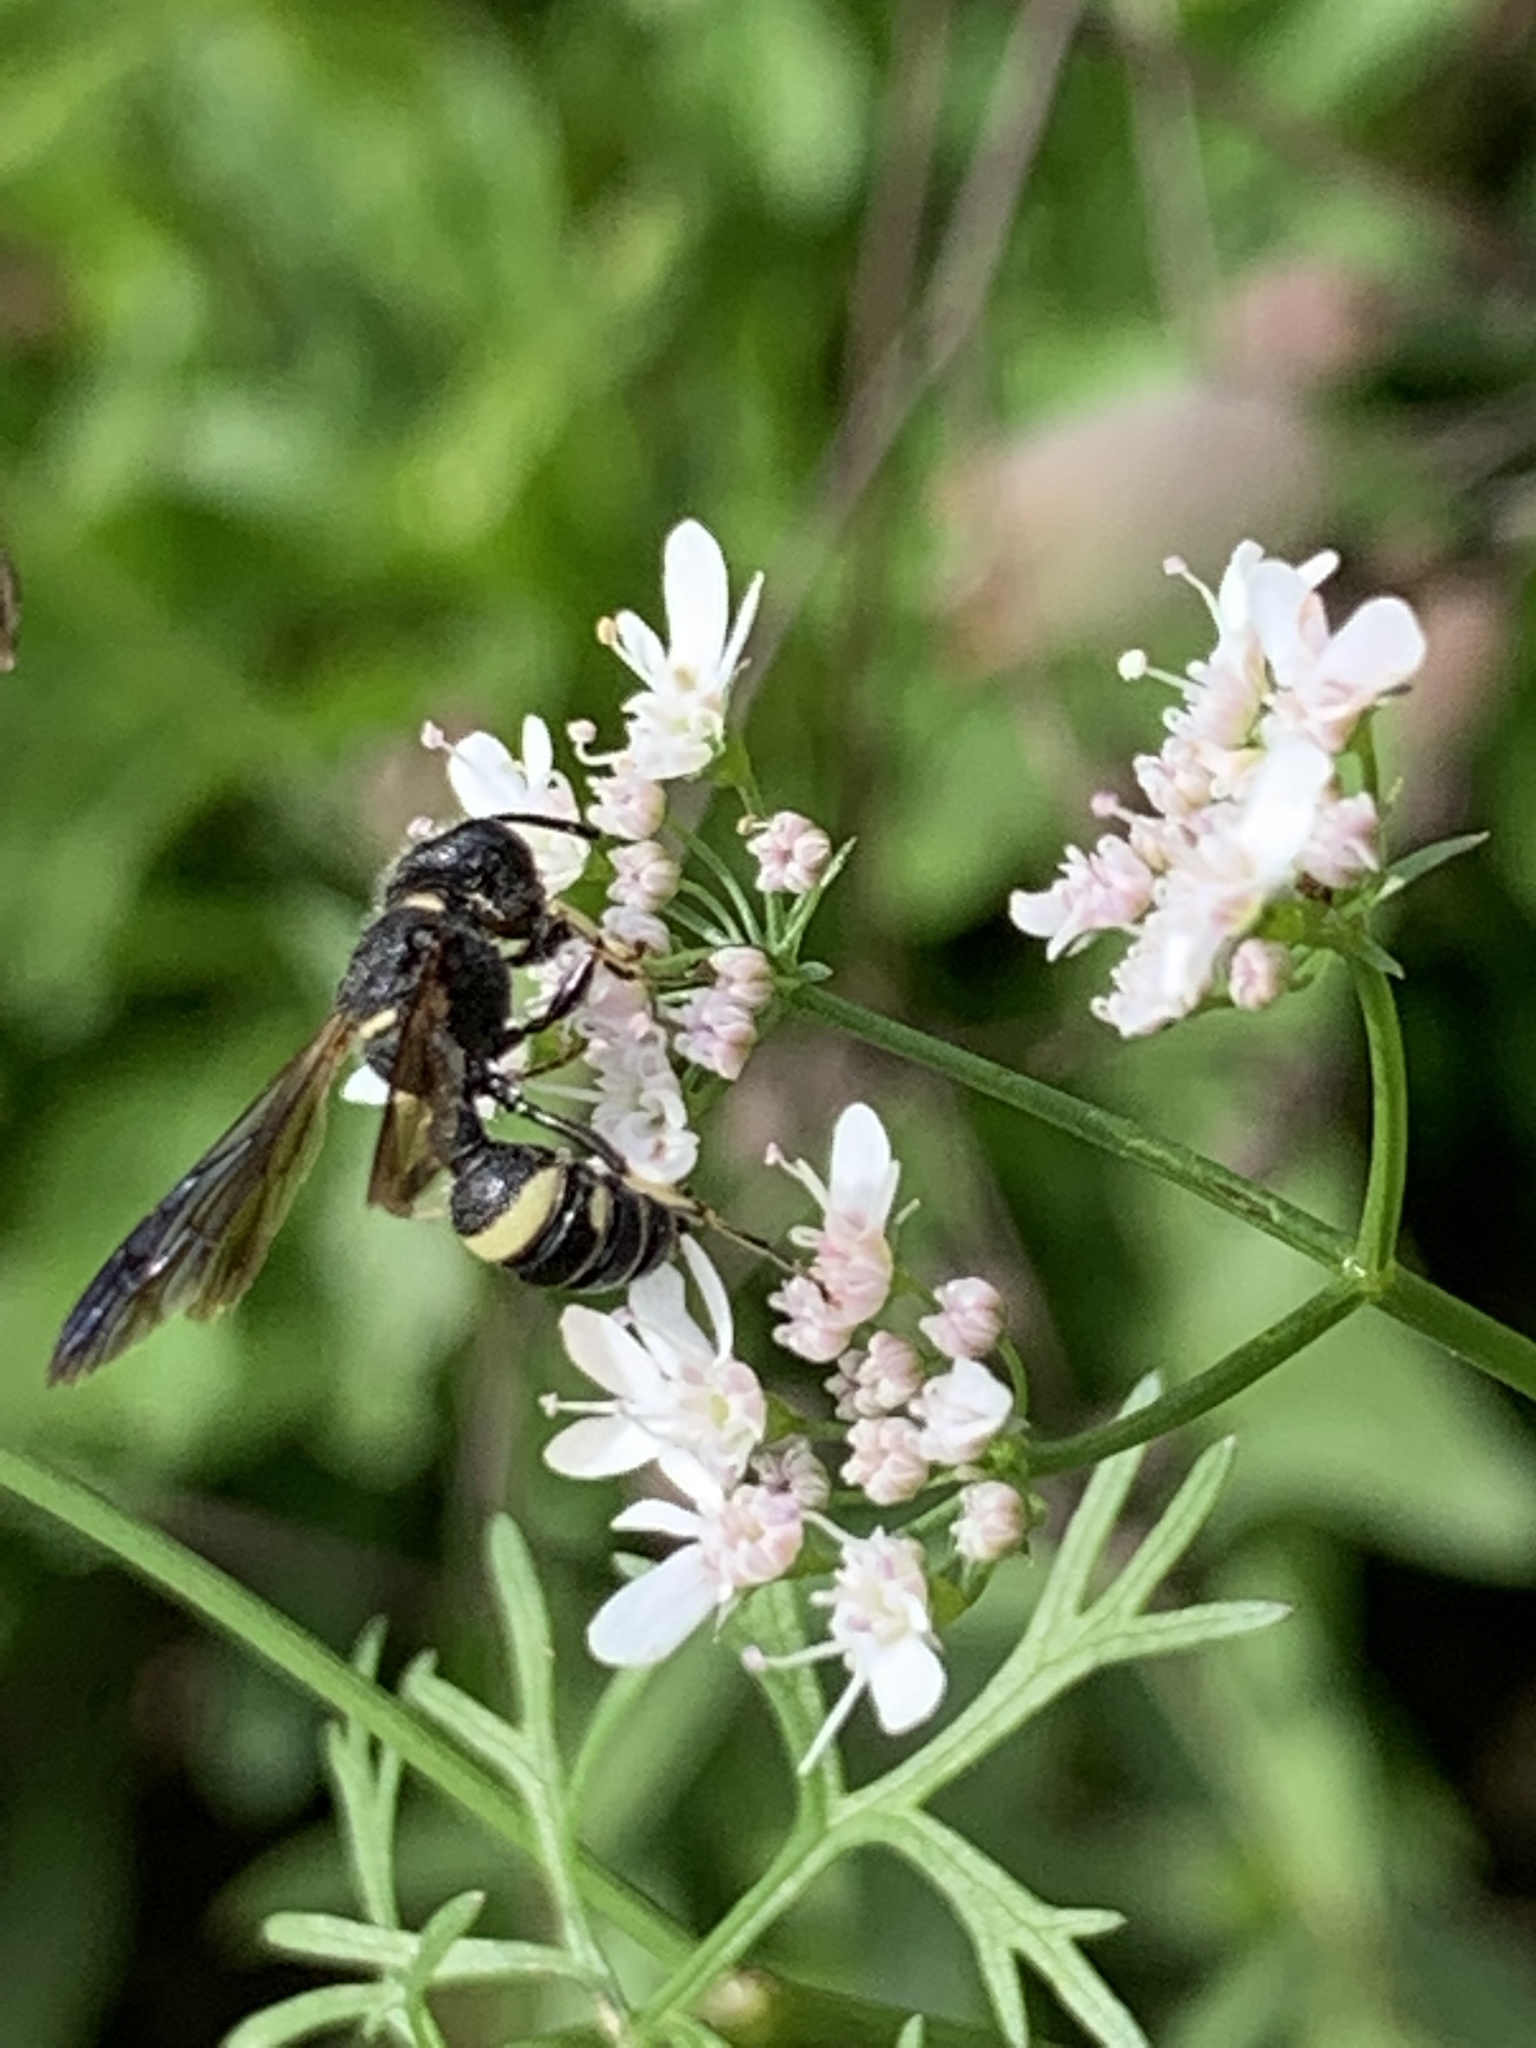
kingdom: Animalia
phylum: Arthropoda
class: Insecta
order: Hymenoptera
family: Crabronidae
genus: Cerceris
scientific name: Cerceris fumipennis
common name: Smokey-winged beetle bandit wasp
